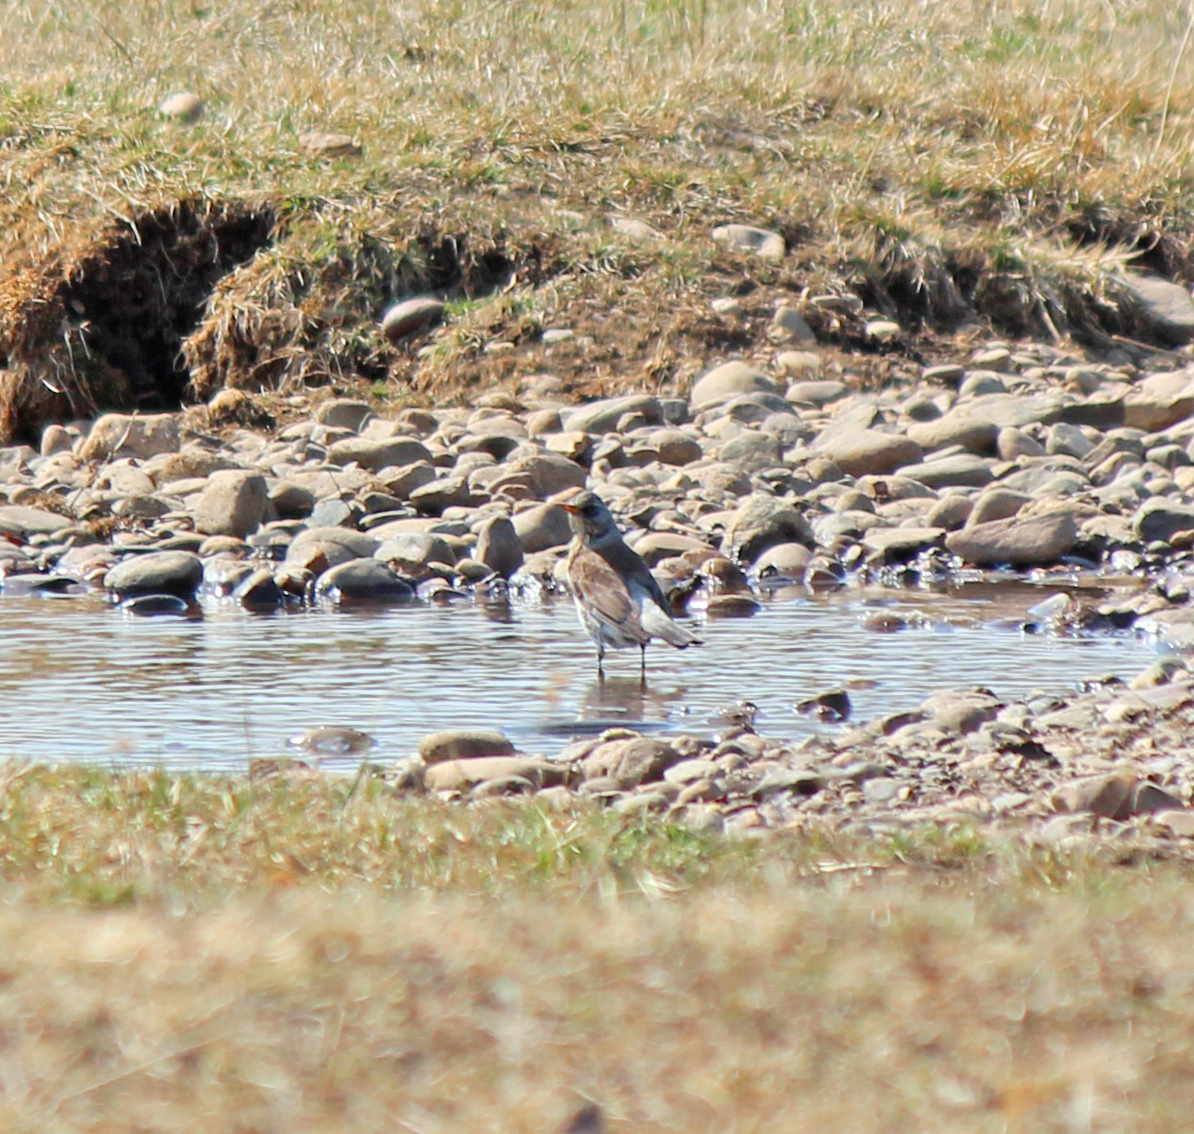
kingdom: Animalia
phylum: Chordata
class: Aves
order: Passeriformes
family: Turdidae
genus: Turdus
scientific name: Turdus pilaris
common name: Fieldfare
